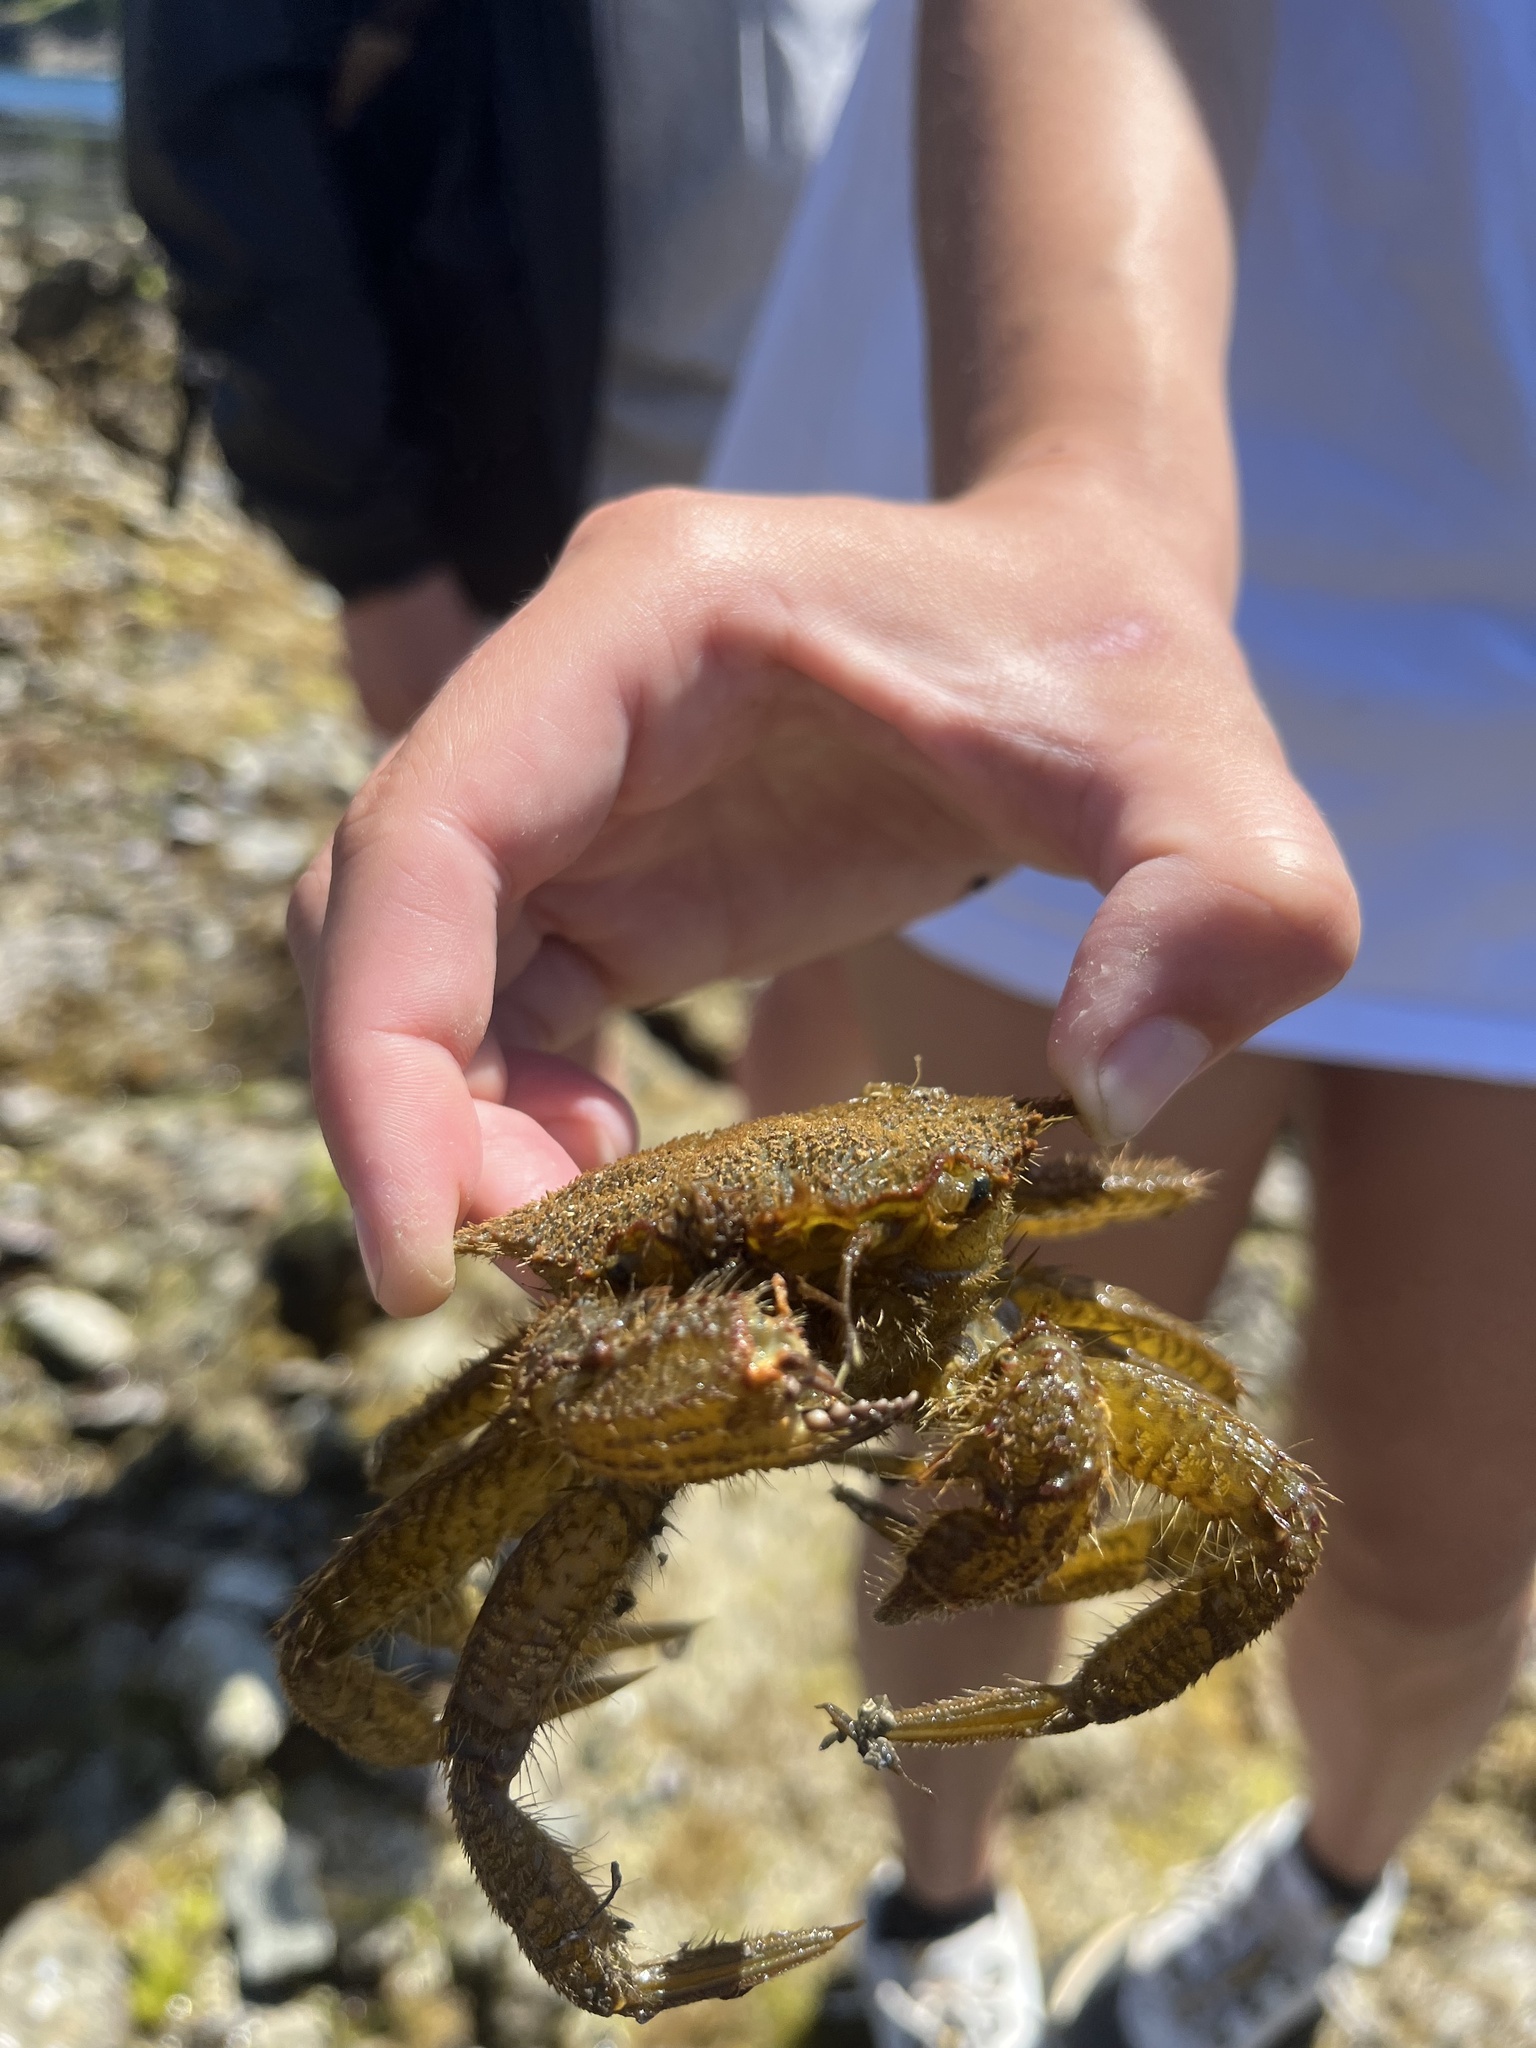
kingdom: Animalia
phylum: Arthropoda
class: Malacostraca
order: Decapoda
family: Cheiragonidae
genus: Telmessus
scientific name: Telmessus cheiragonus
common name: Helmet crab
